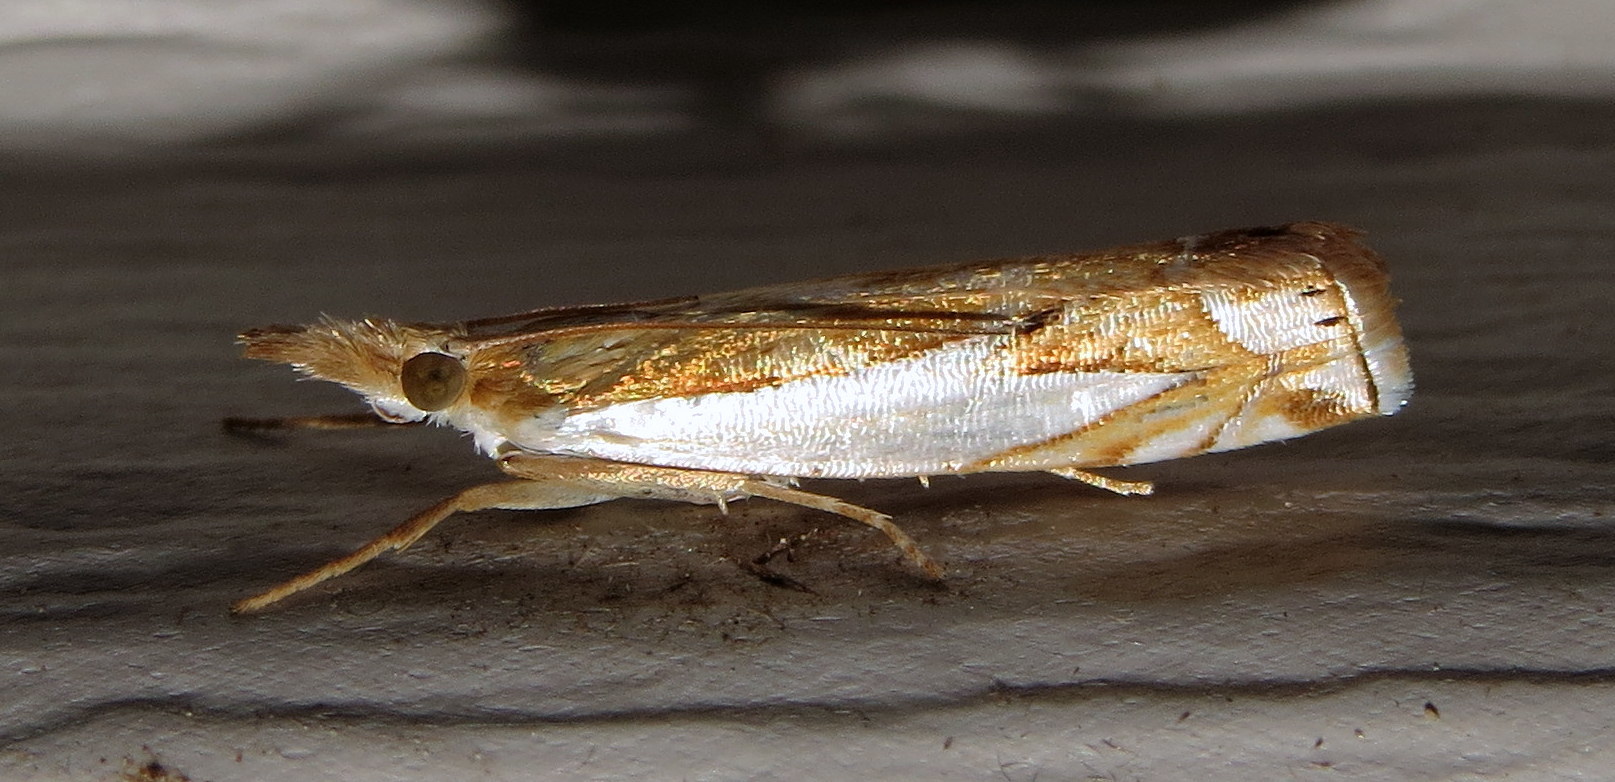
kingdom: Animalia
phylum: Arthropoda
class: Insecta
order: Lepidoptera
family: Crambidae
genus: Crambus
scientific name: Crambus bidens
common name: Forked grass-veneer
